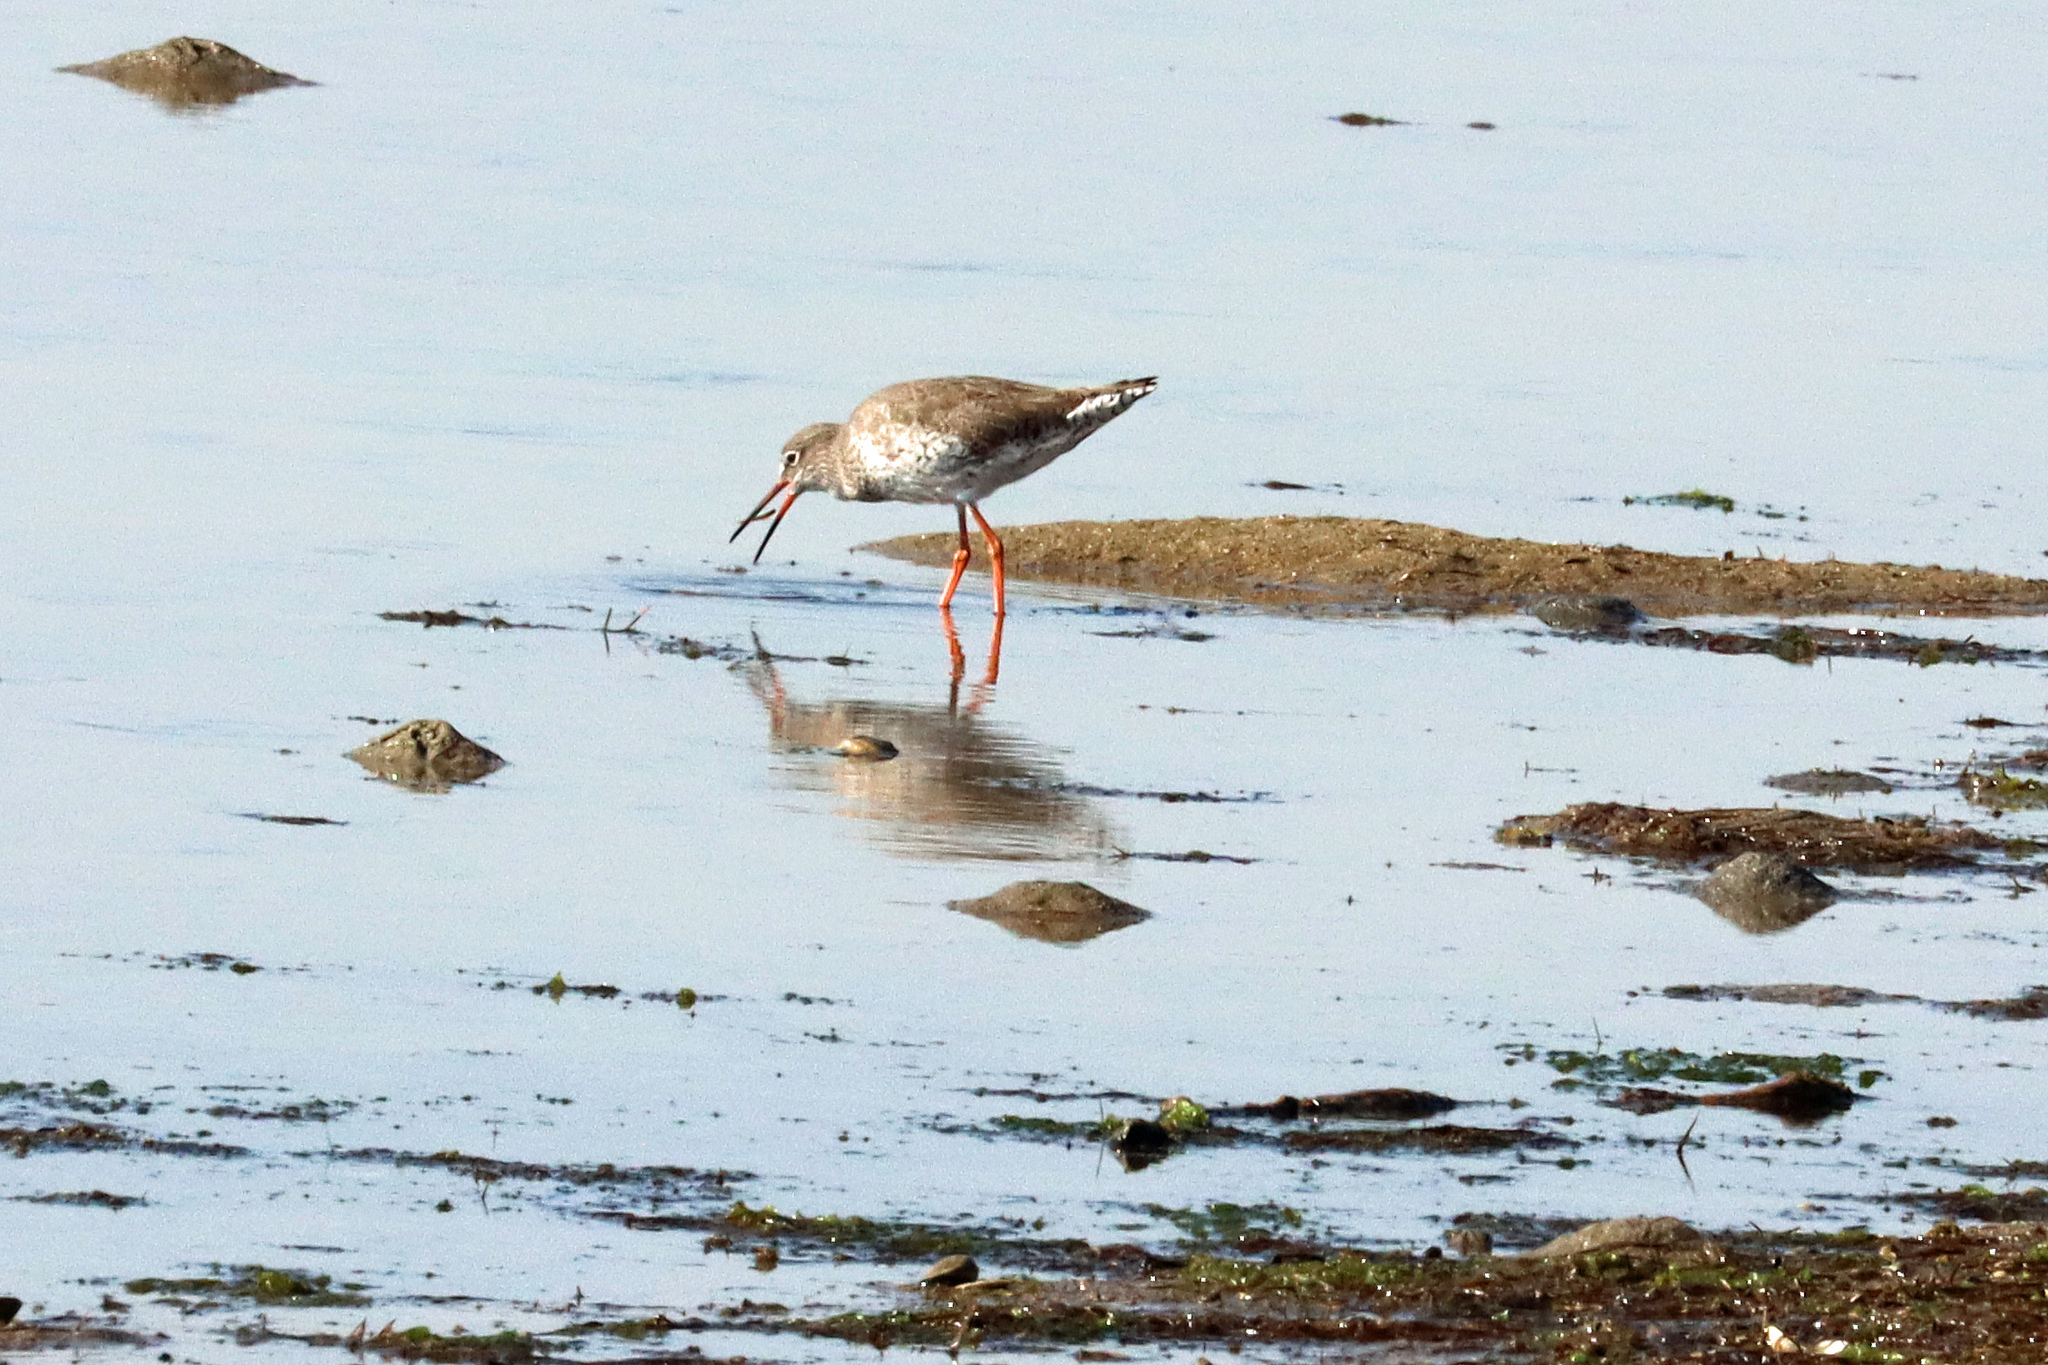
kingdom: Animalia
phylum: Chordata
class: Aves
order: Charadriiformes
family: Scolopacidae
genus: Tringa
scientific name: Tringa totanus
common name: Common redshank
